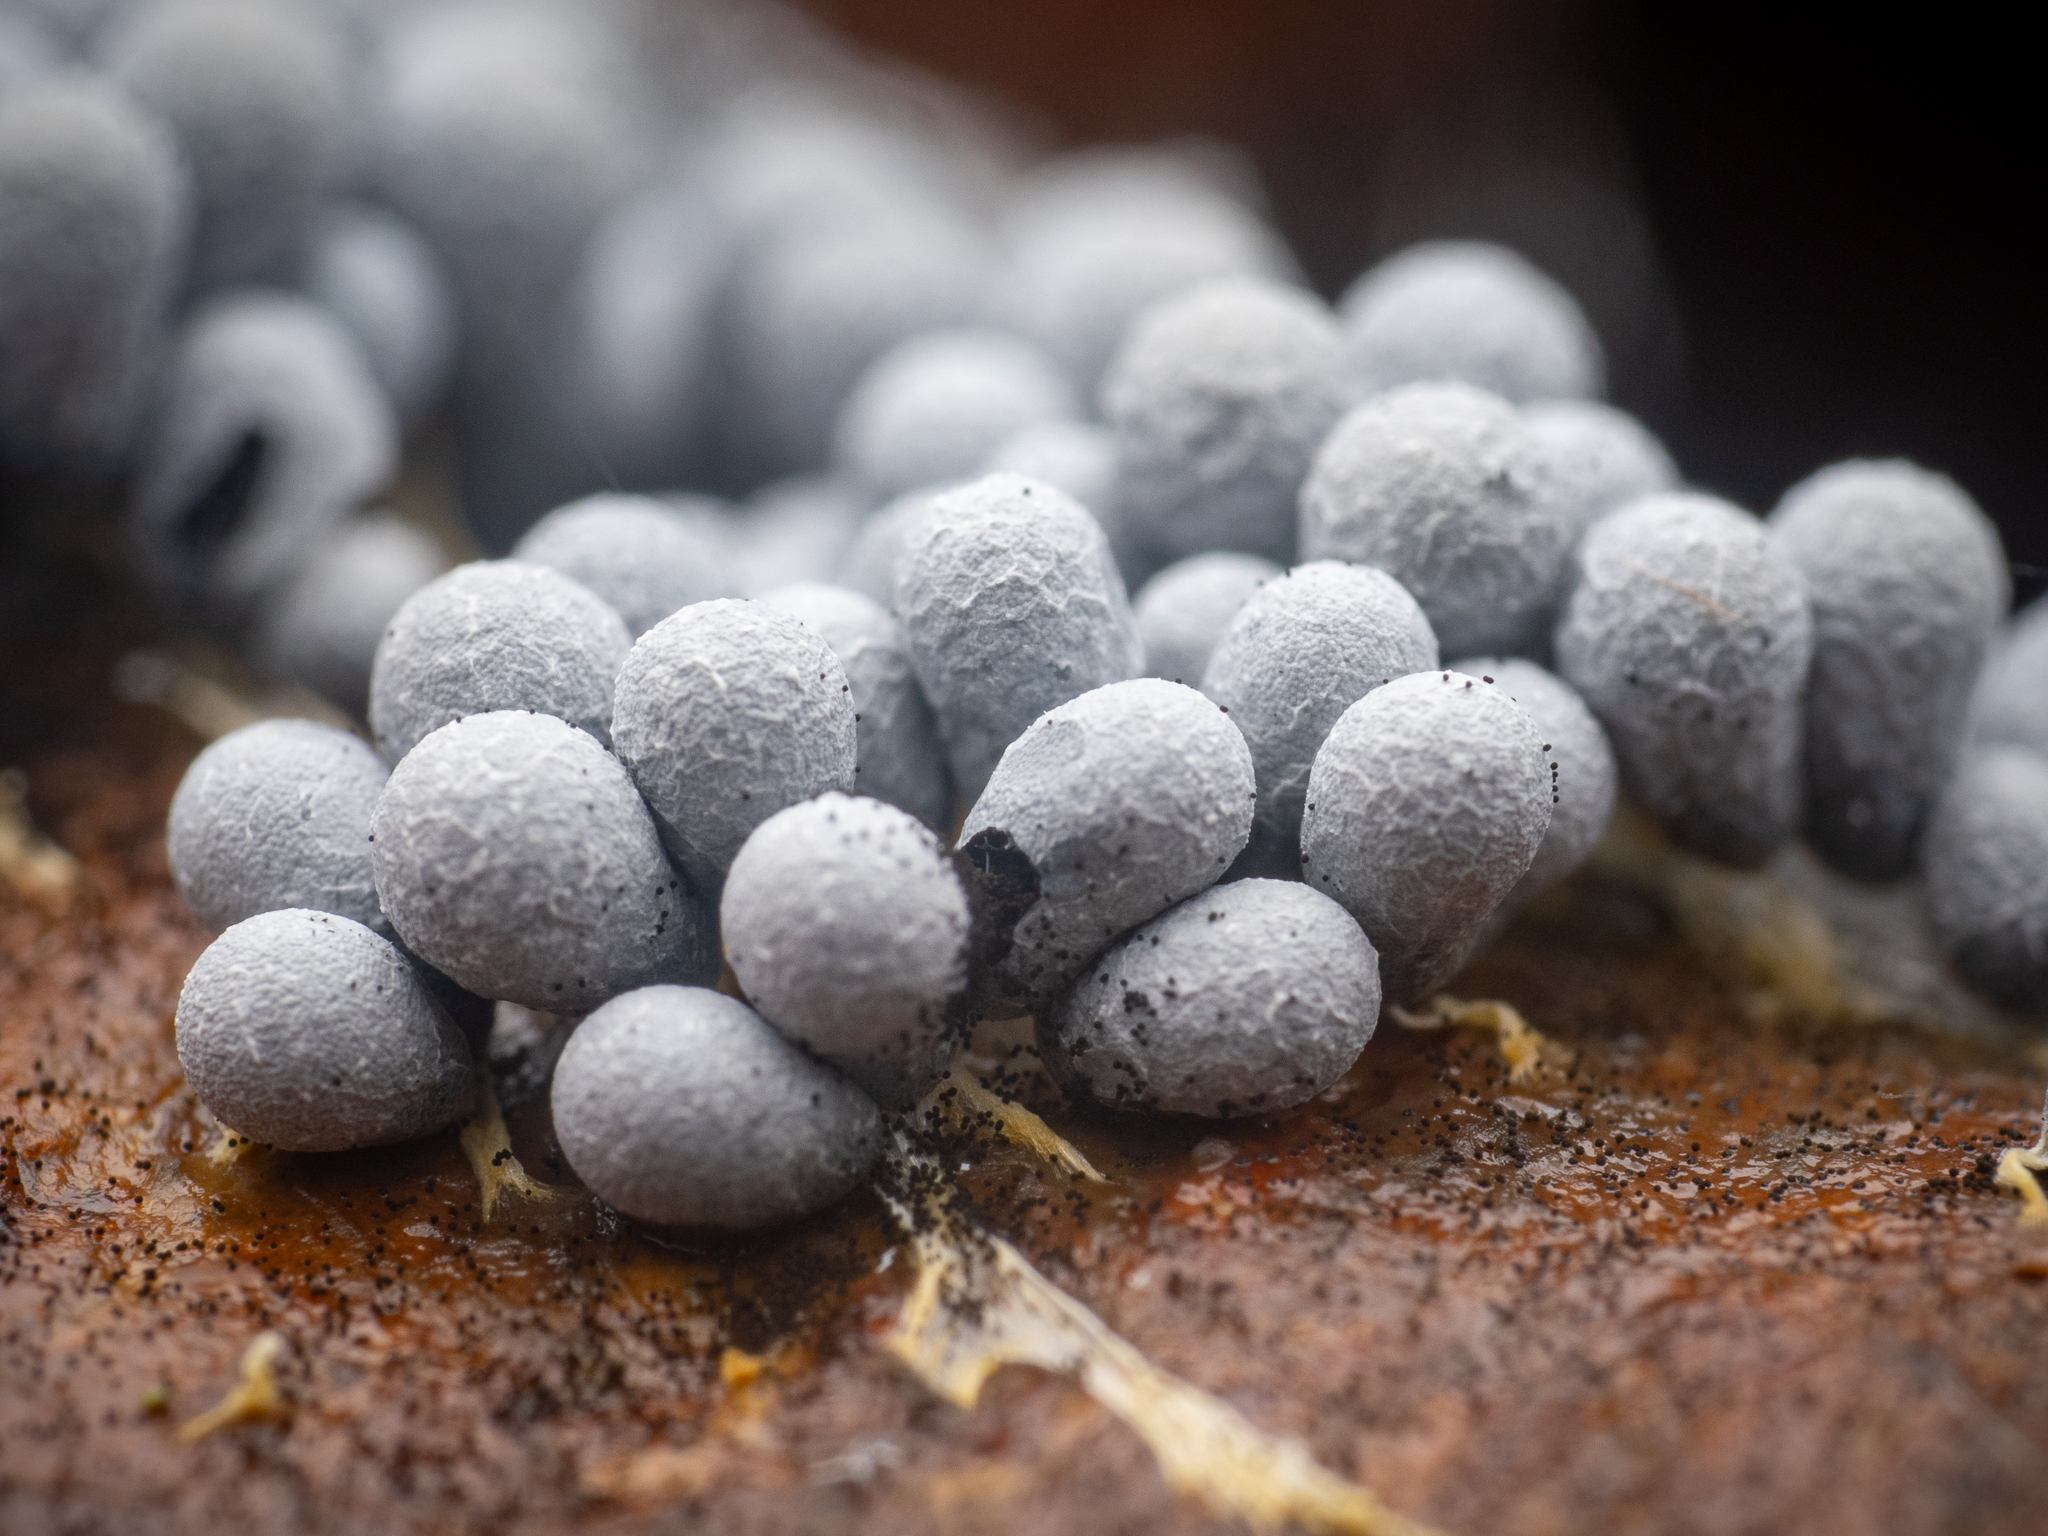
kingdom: Protozoa
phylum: Mycetozoa
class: Myxomycetes
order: Physarales
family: Physaraceae
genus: Badhamia
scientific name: Badhamia utricularis
